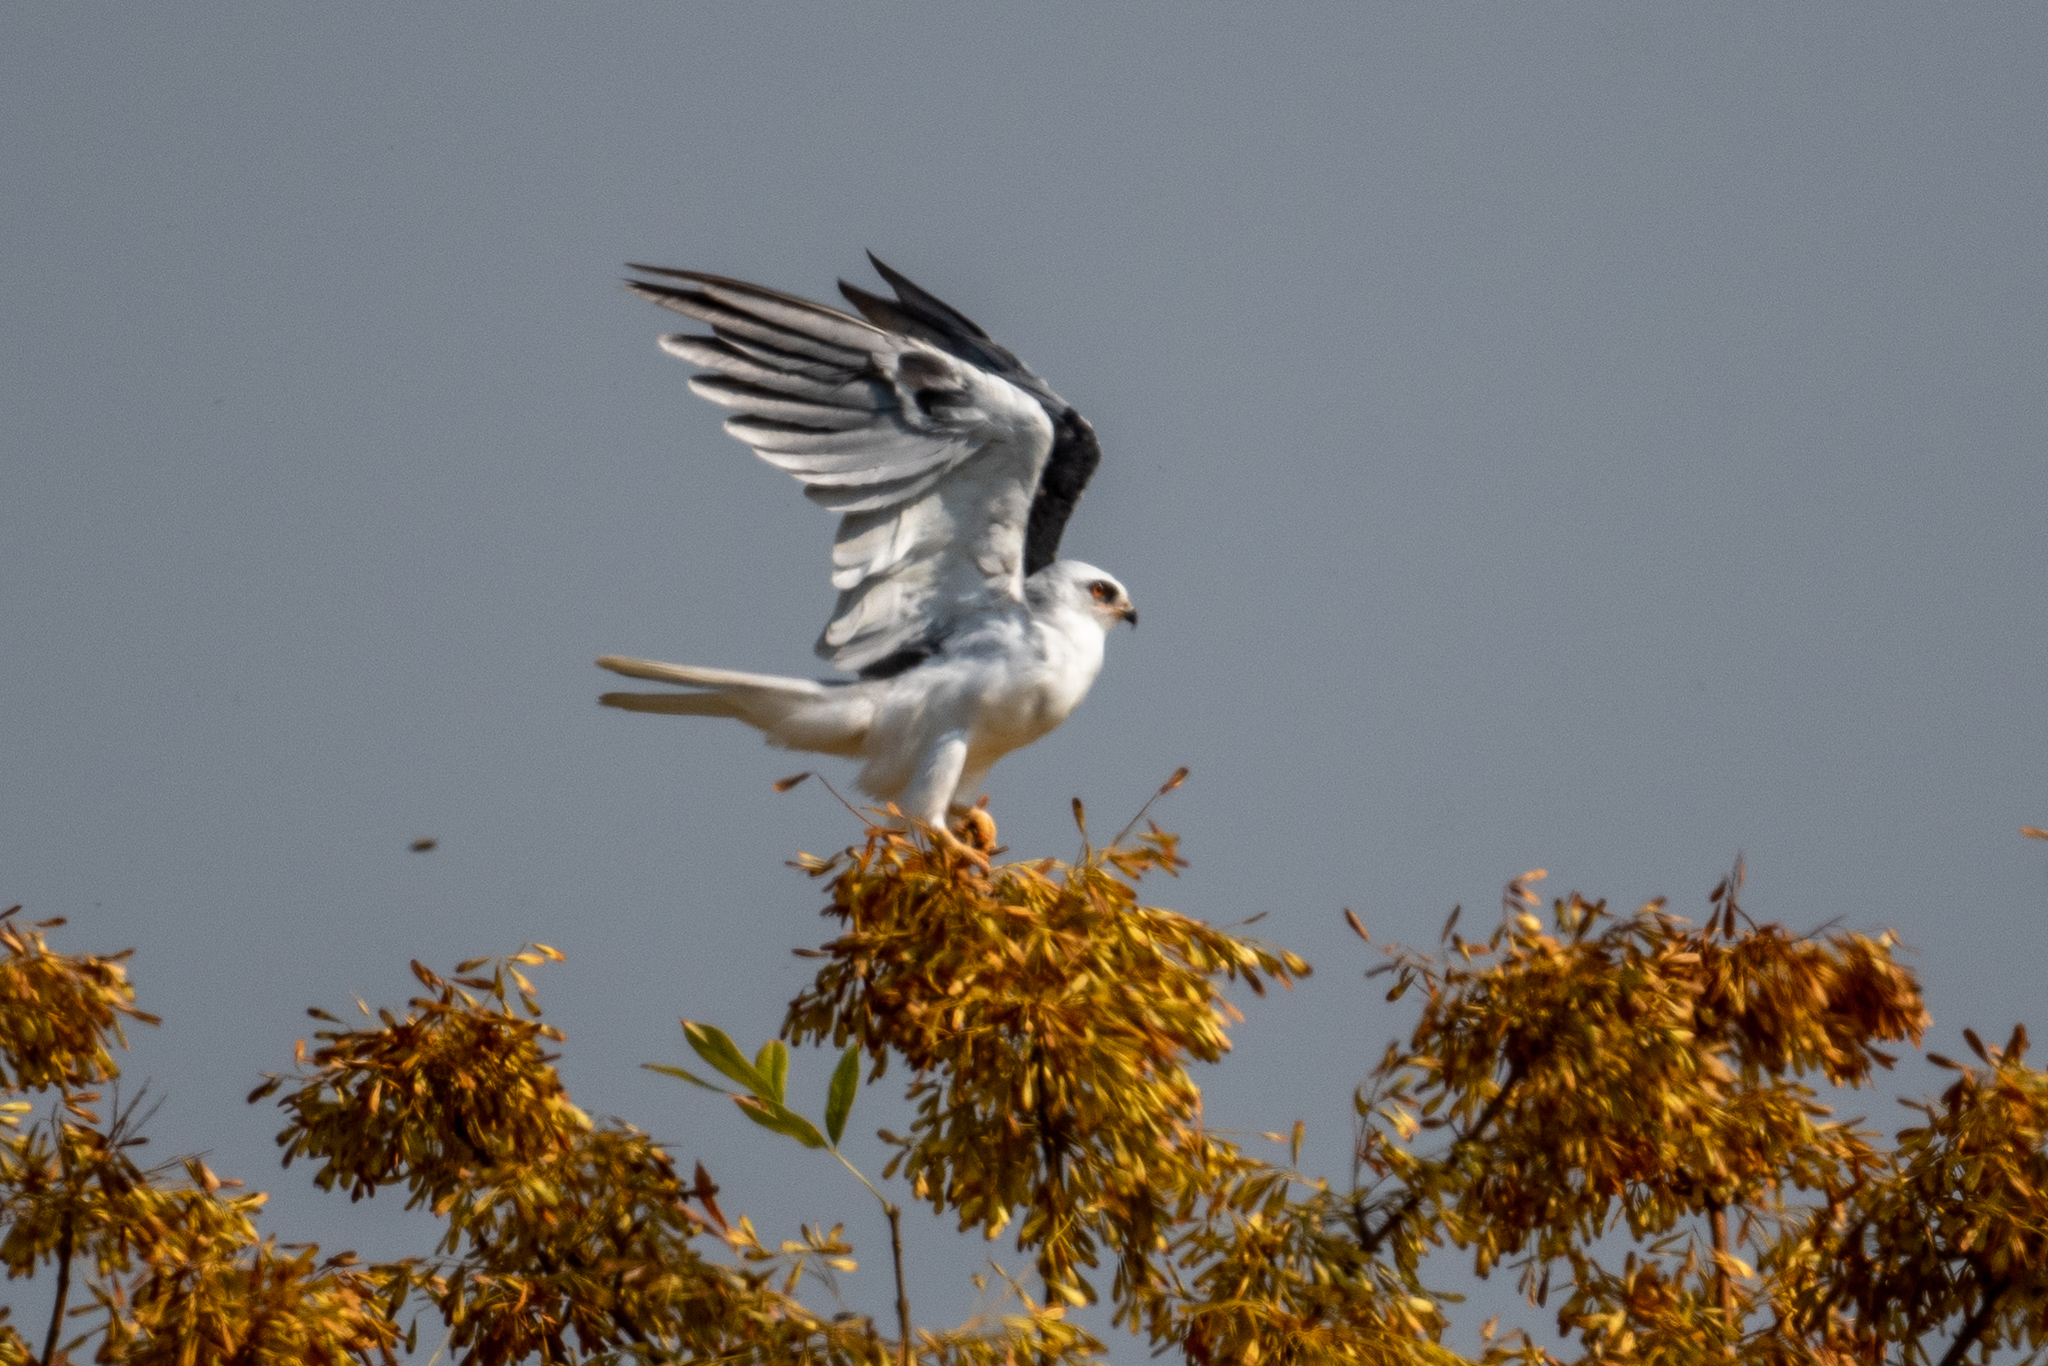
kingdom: Animalia
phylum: Chordata
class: Aves
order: Accipitriformes
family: Accipitridae
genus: Elanus
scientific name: Elanus leucurus
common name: White-tailed kite
